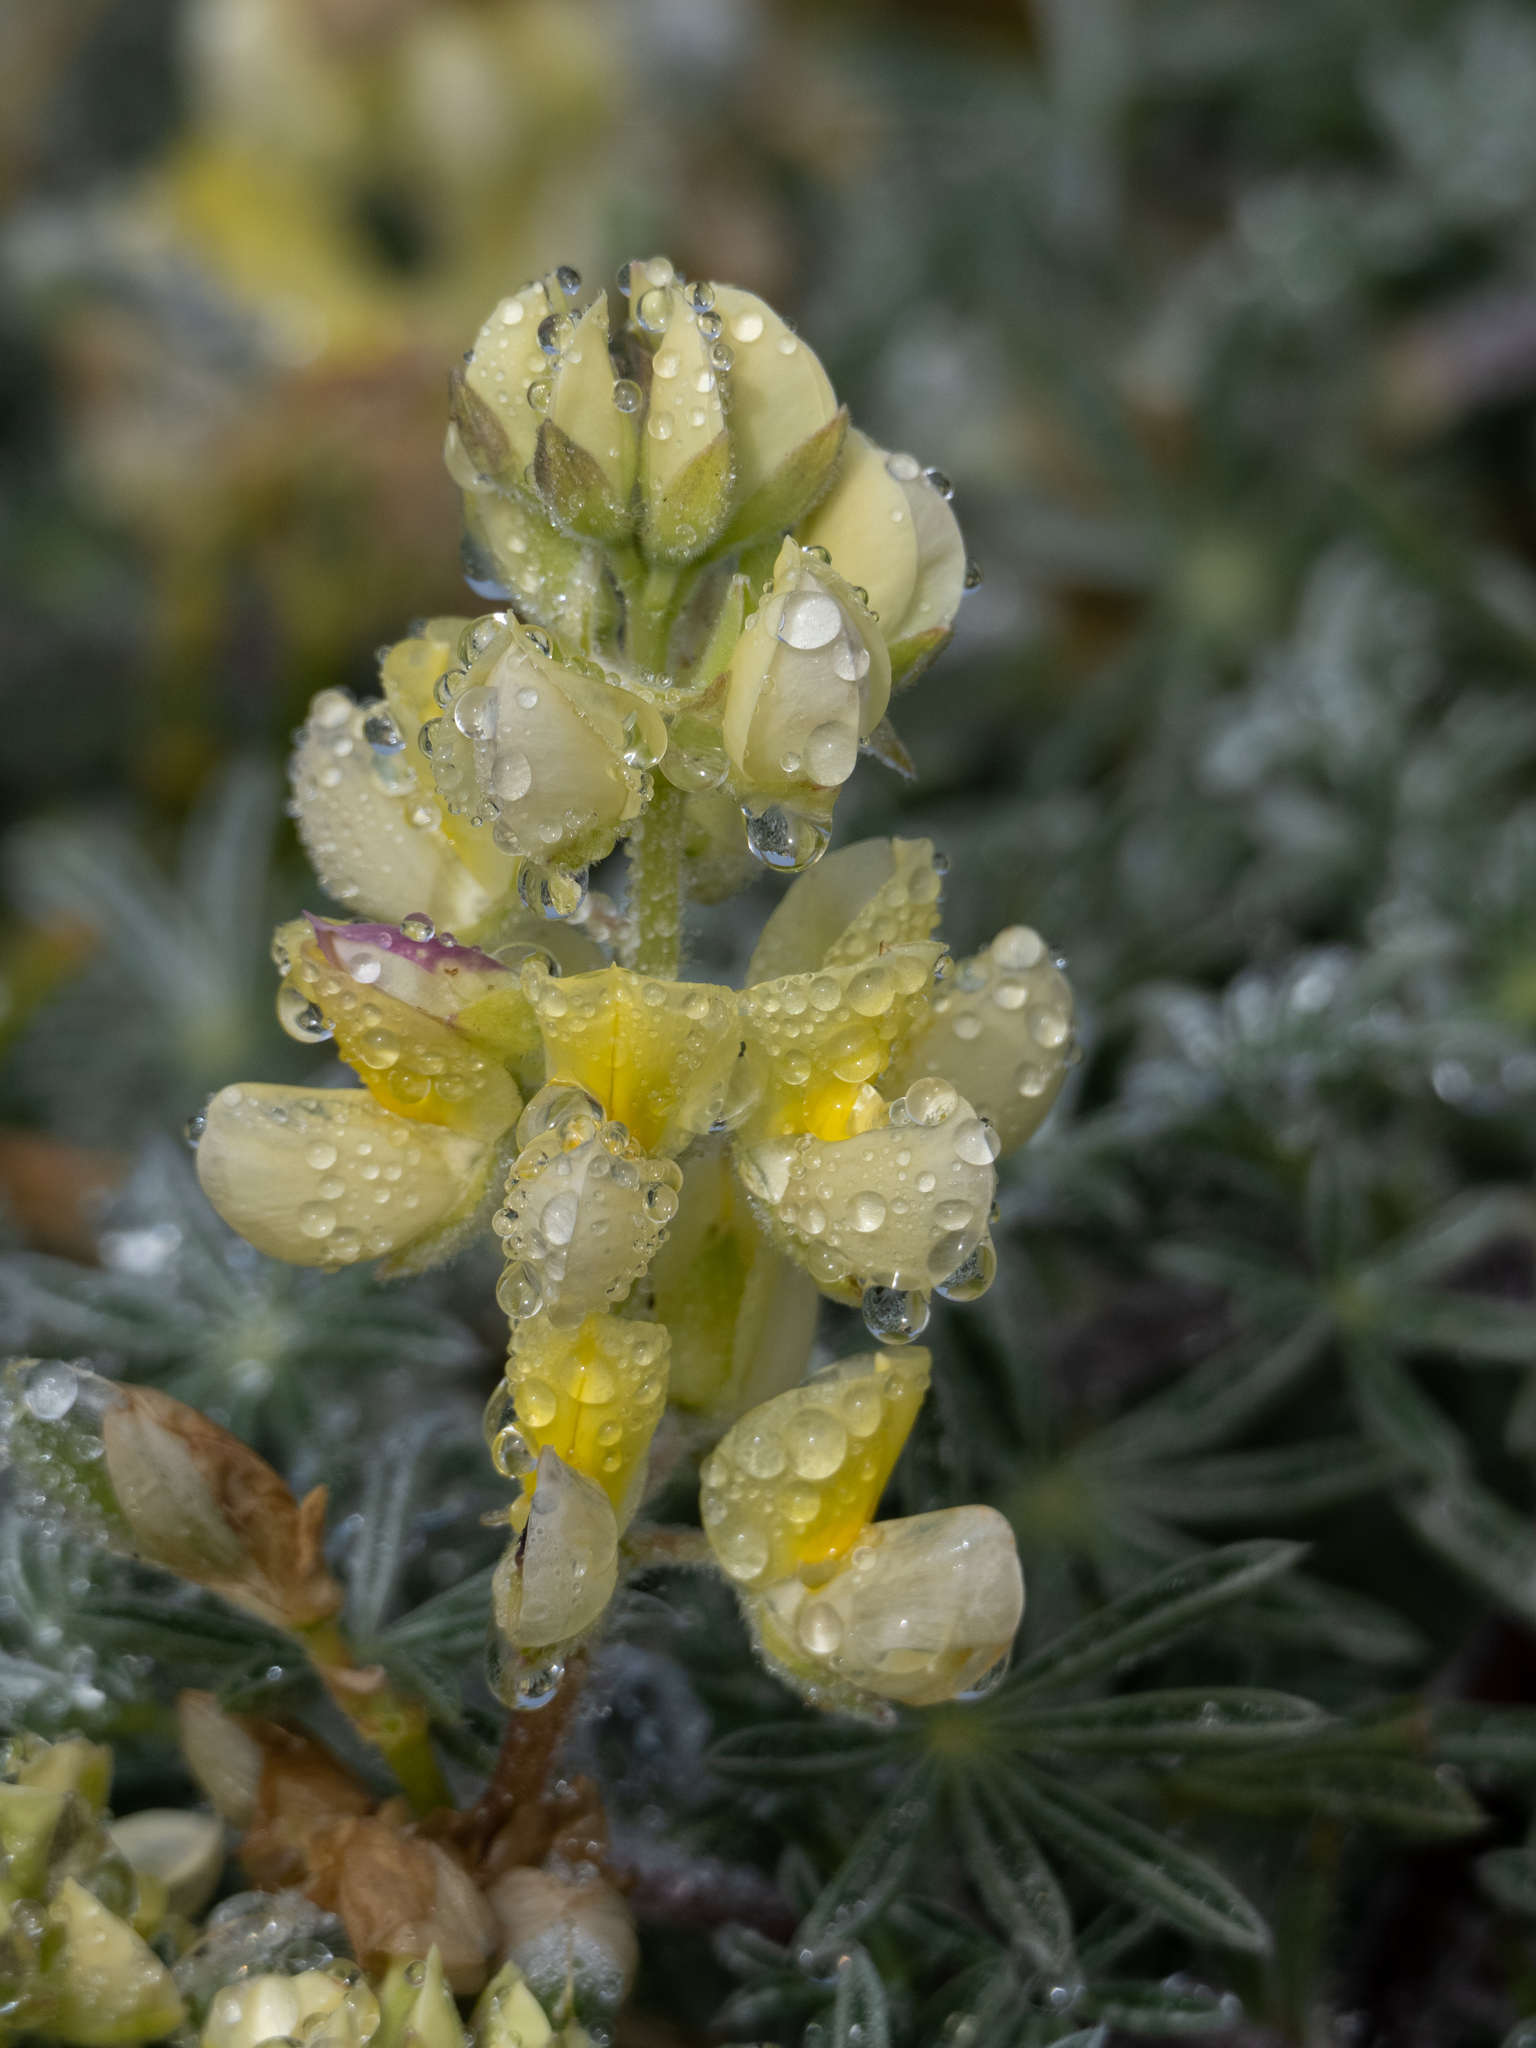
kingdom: Plantae
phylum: Tracheophyta
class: Magnoliopsida
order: Fabales
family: Fabaceae
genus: Lupinus
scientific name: Lupinus arboreus
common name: Yellow bush lupine
